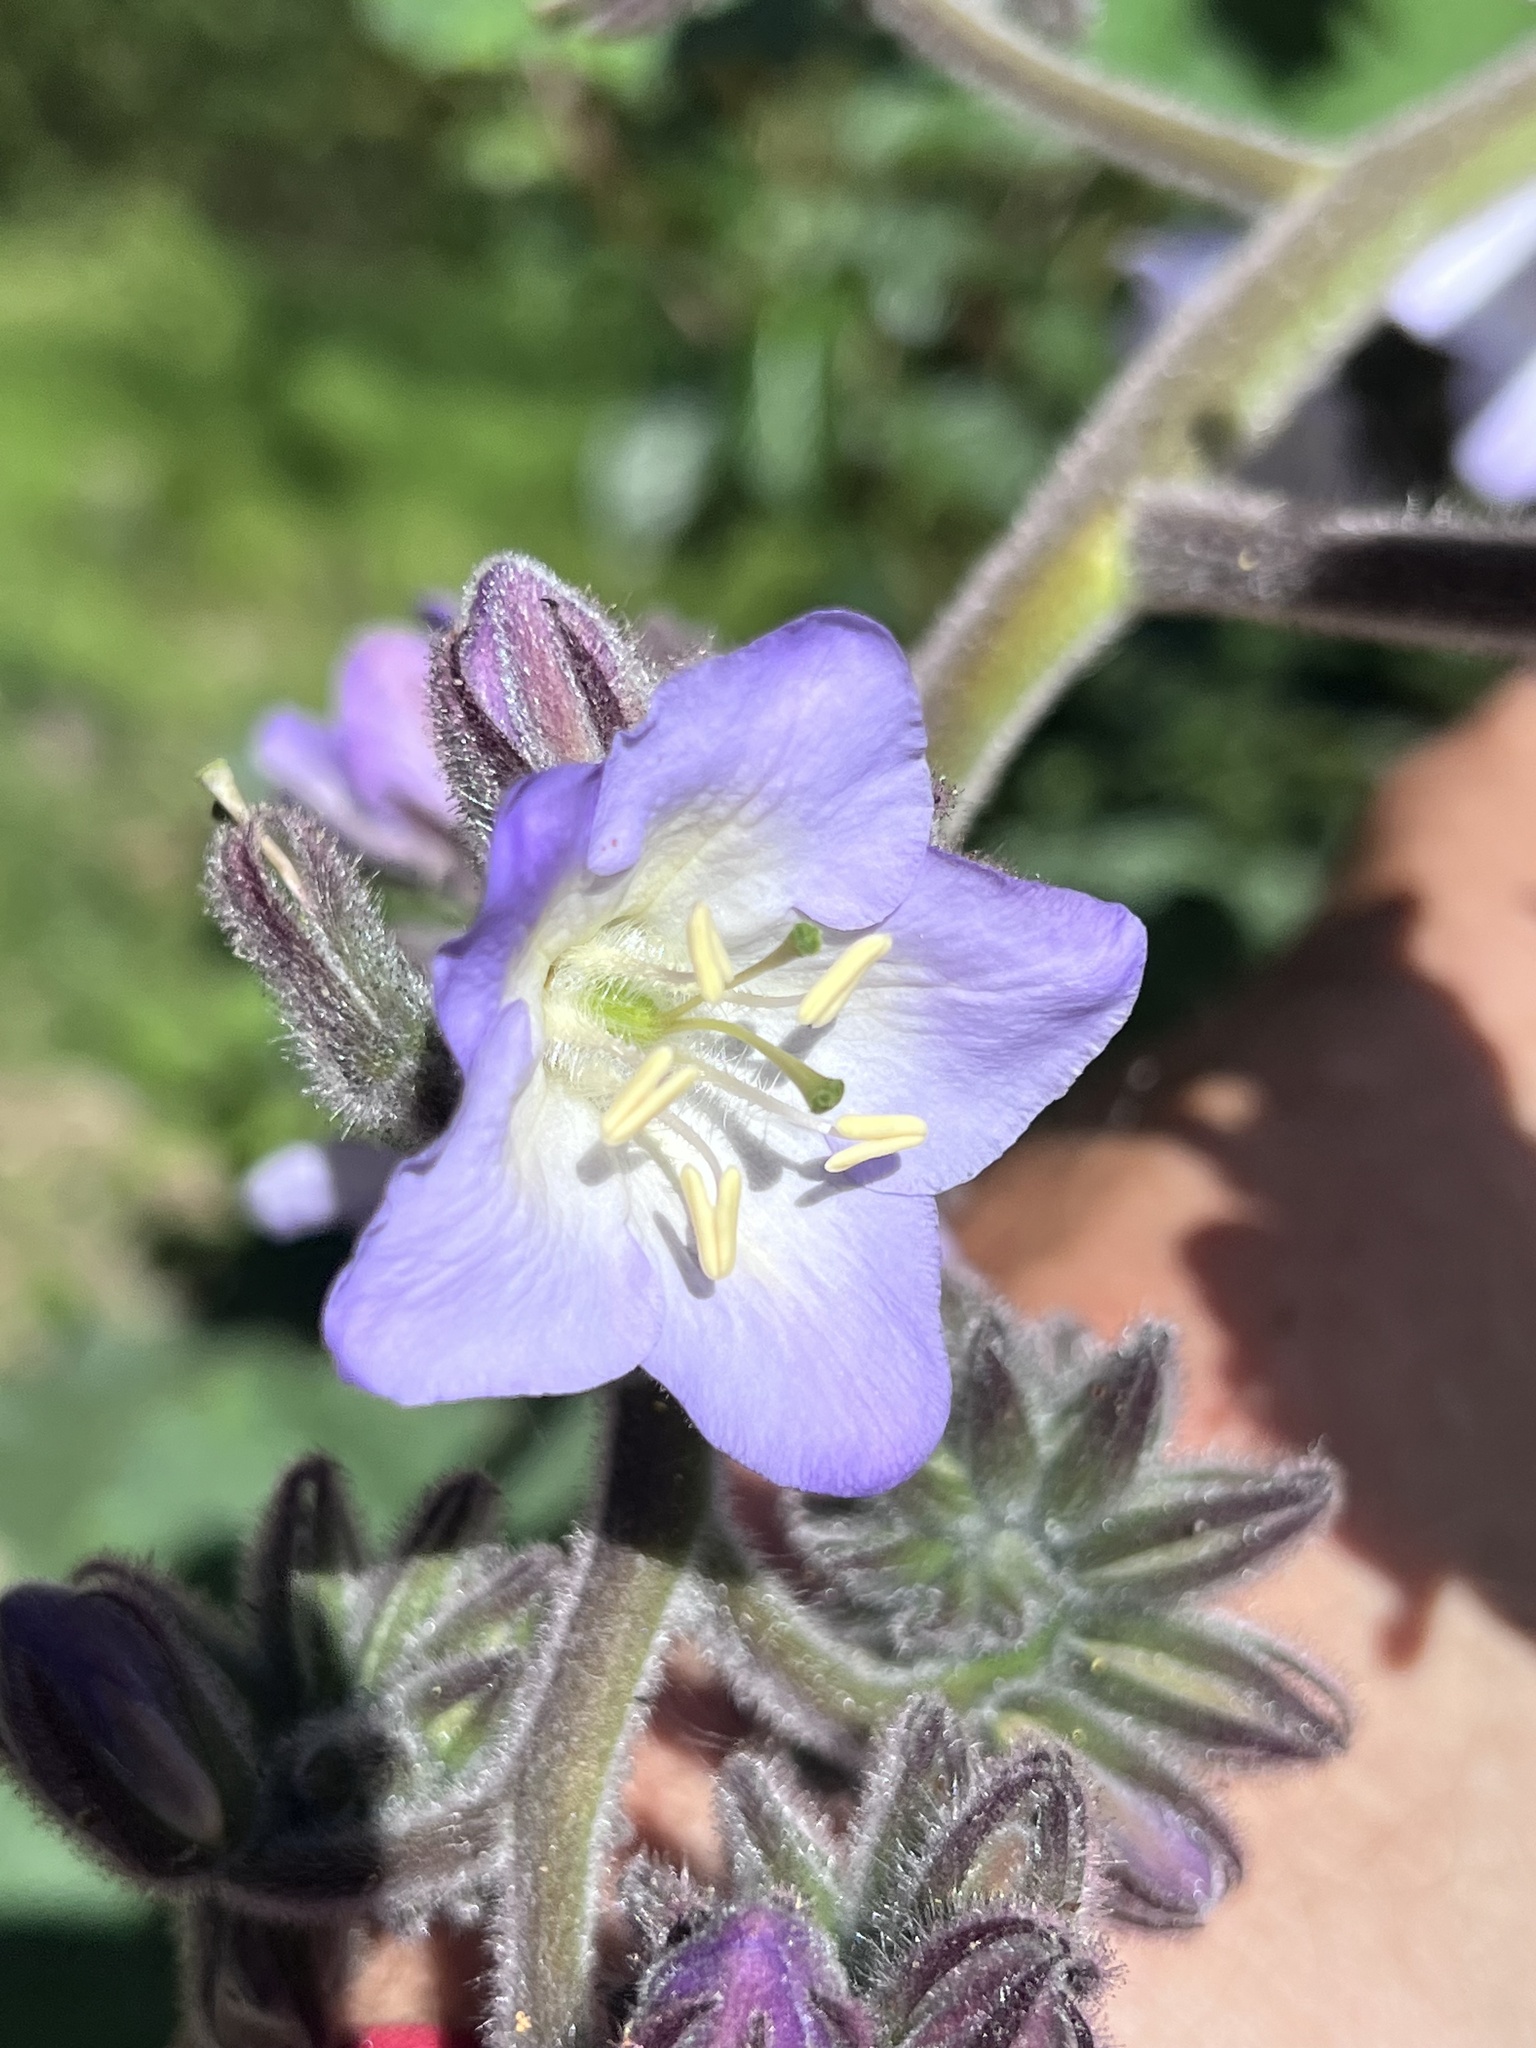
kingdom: Plantae
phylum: Tracheophyta
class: Magnoliopsida
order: Boraginales
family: Namaceae
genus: Wigandia
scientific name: Wigandia urens
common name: Caracus wigandia
